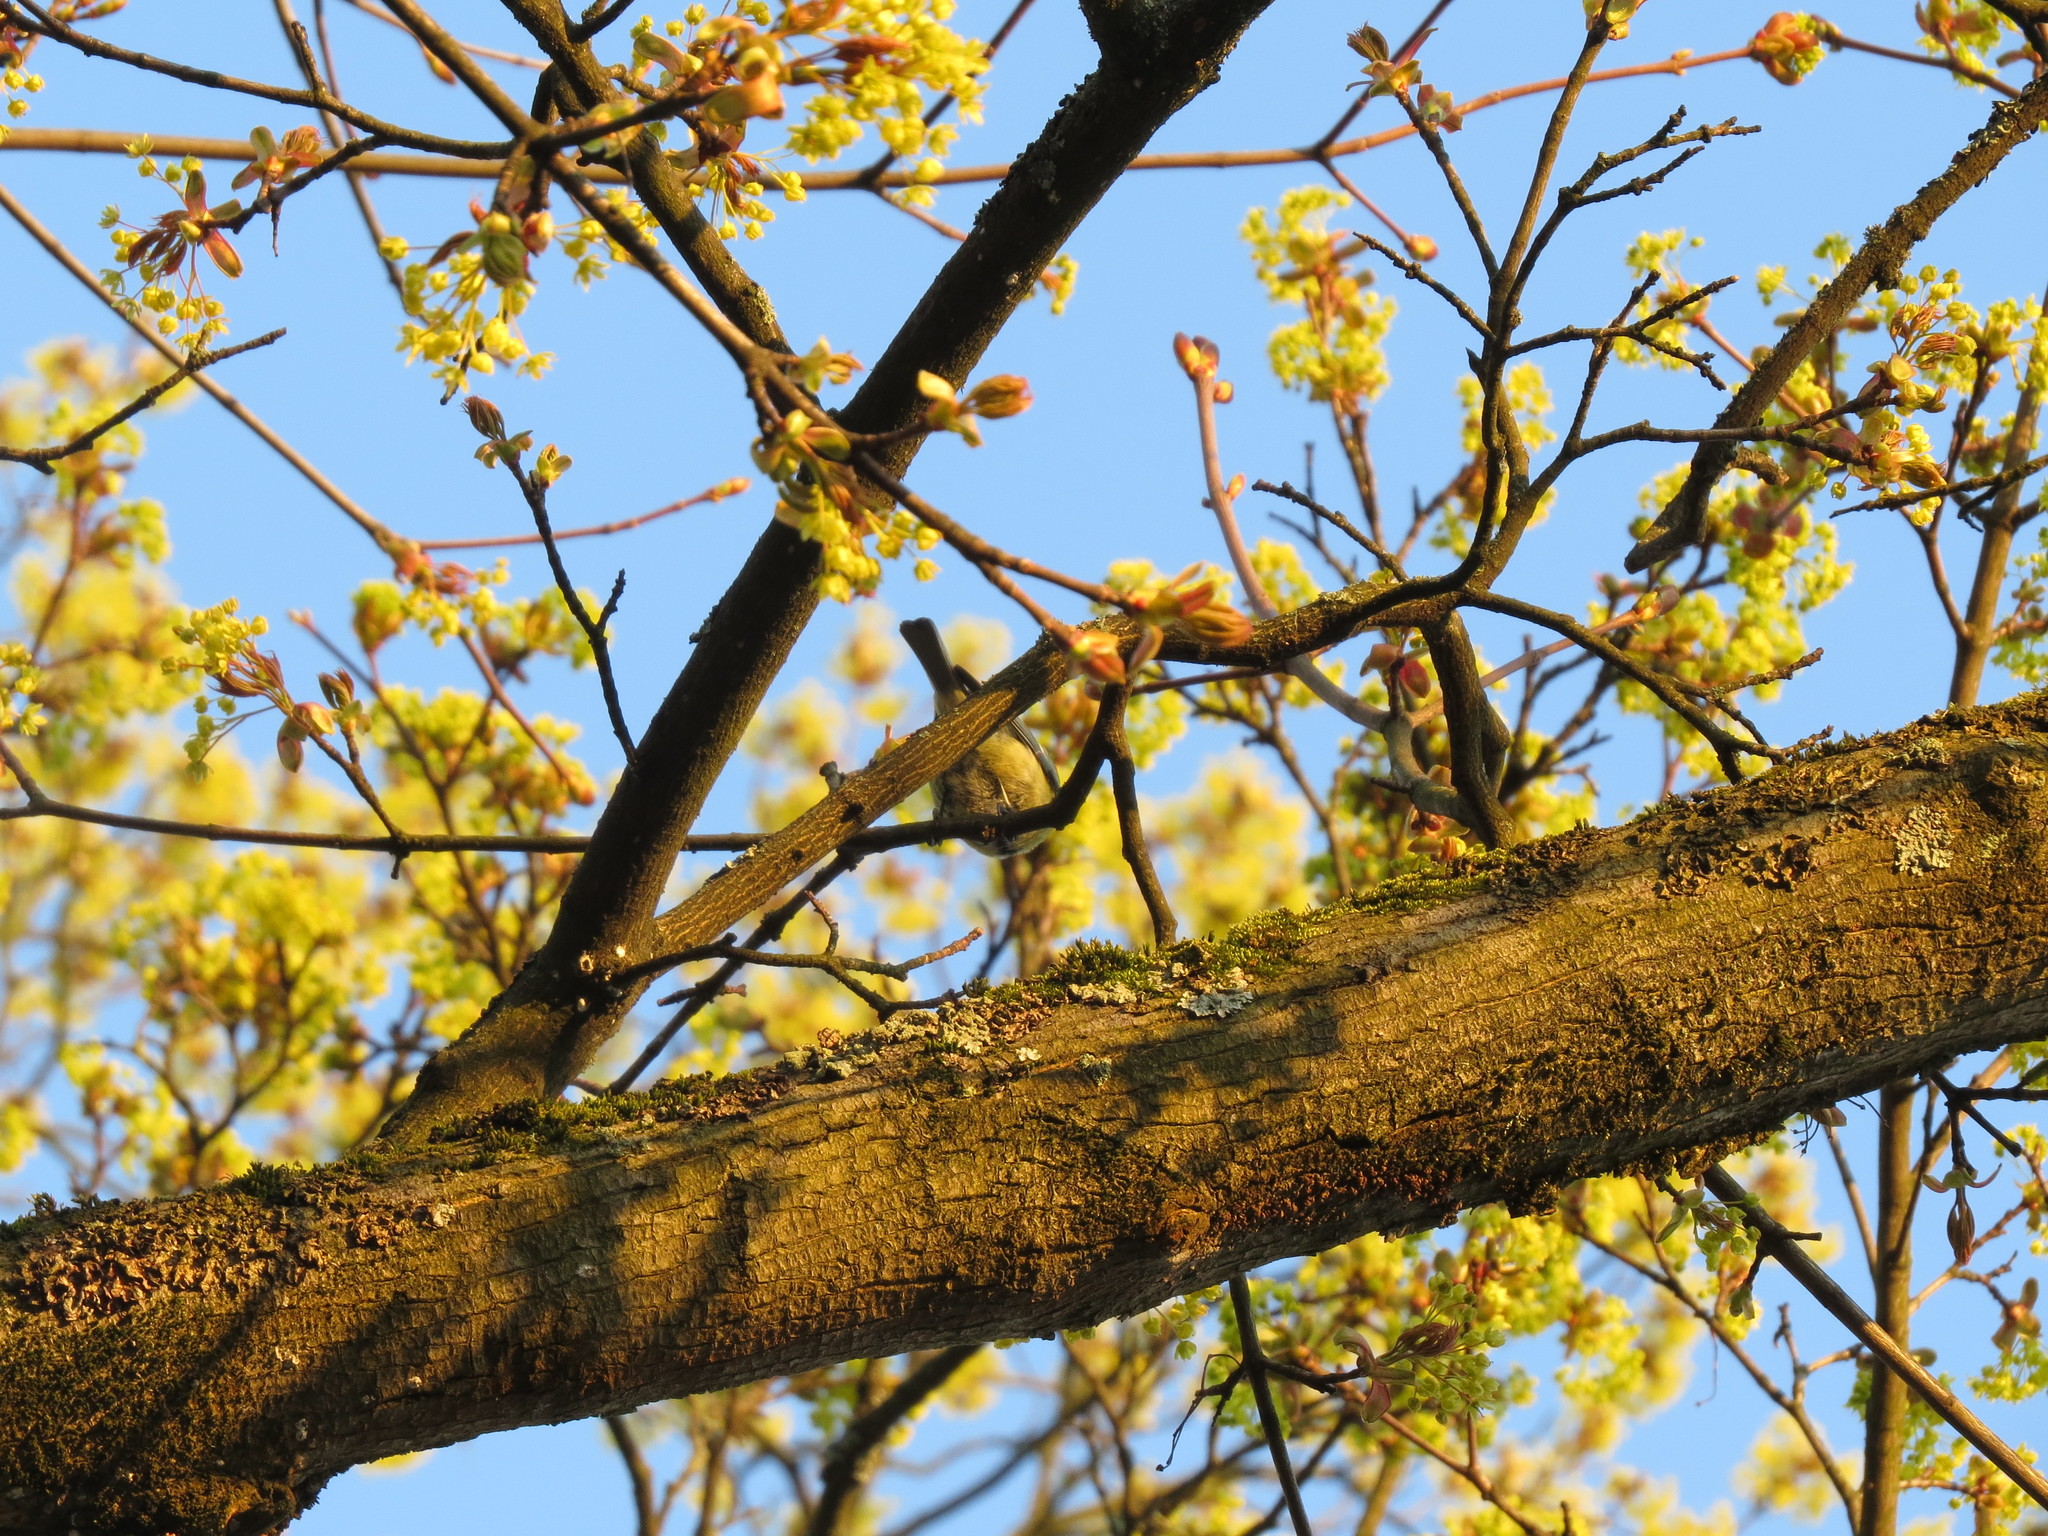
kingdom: Animalia
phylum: Chordata
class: Aves
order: Passeriformes
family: Paridae
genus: Cyanistes
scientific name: Cyanistes caeruleus
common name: Eurasian blue tit
